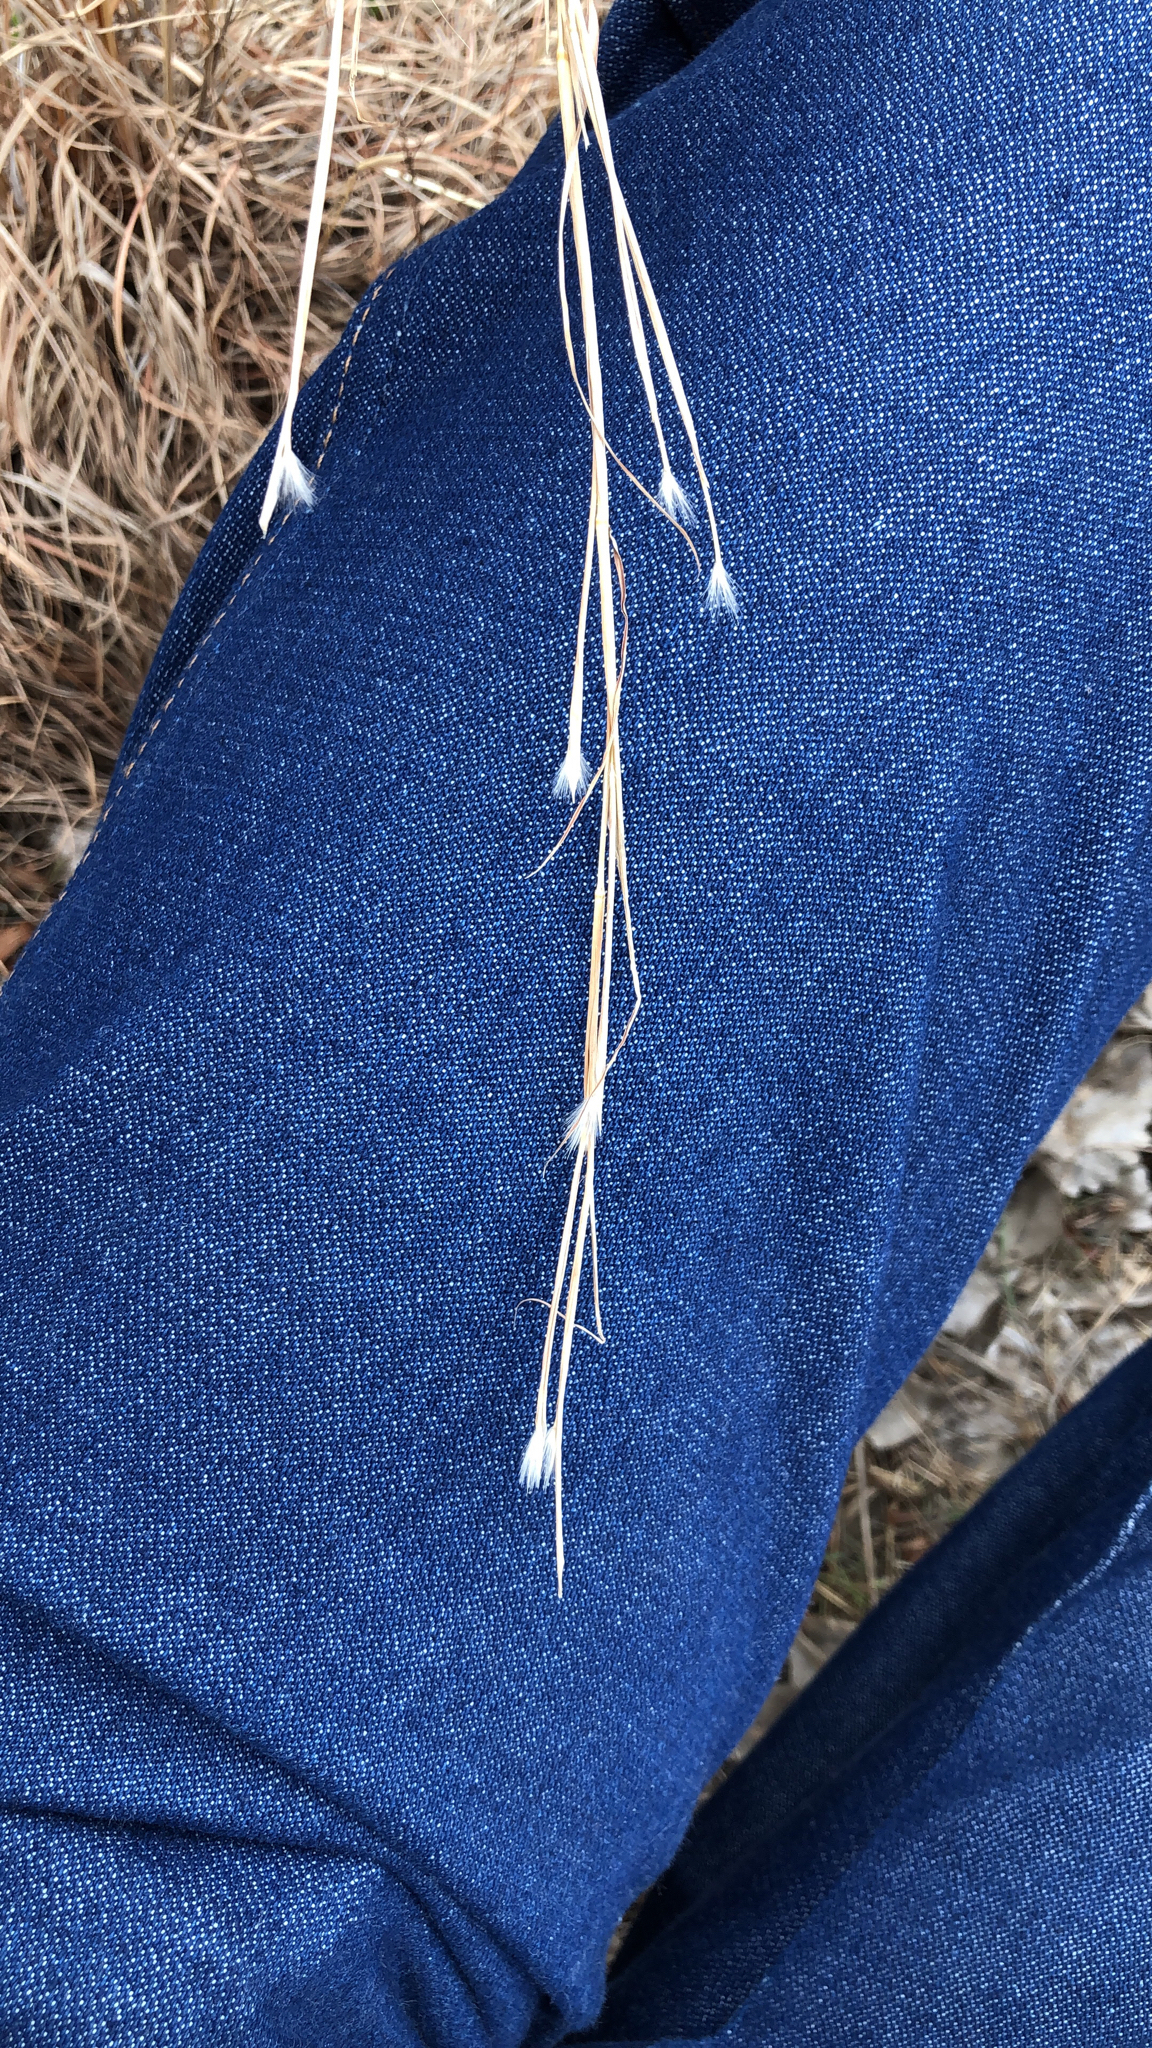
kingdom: Plantae
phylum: Tracheophyta
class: Liliopsida
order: Poales
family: Poaceae
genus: Andropogon
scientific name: Andropogon ternarius
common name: Split bluestem
